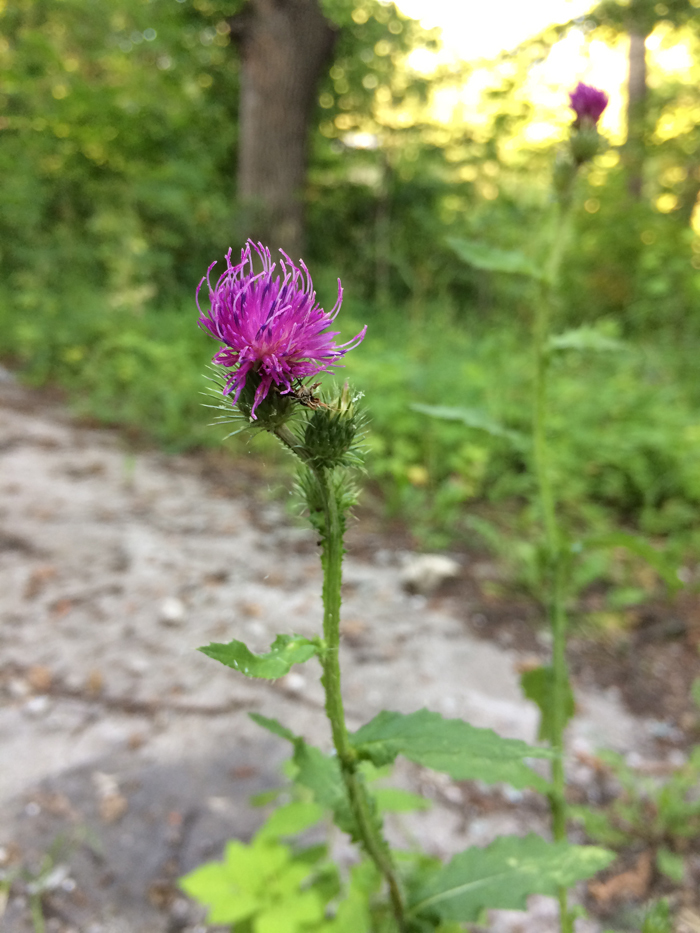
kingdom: Plantae
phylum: Tracheophyta
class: Magnoliopsida
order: Asterales
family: Asteraceae
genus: Carduus
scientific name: Carduus crispus
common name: Welted thistle
